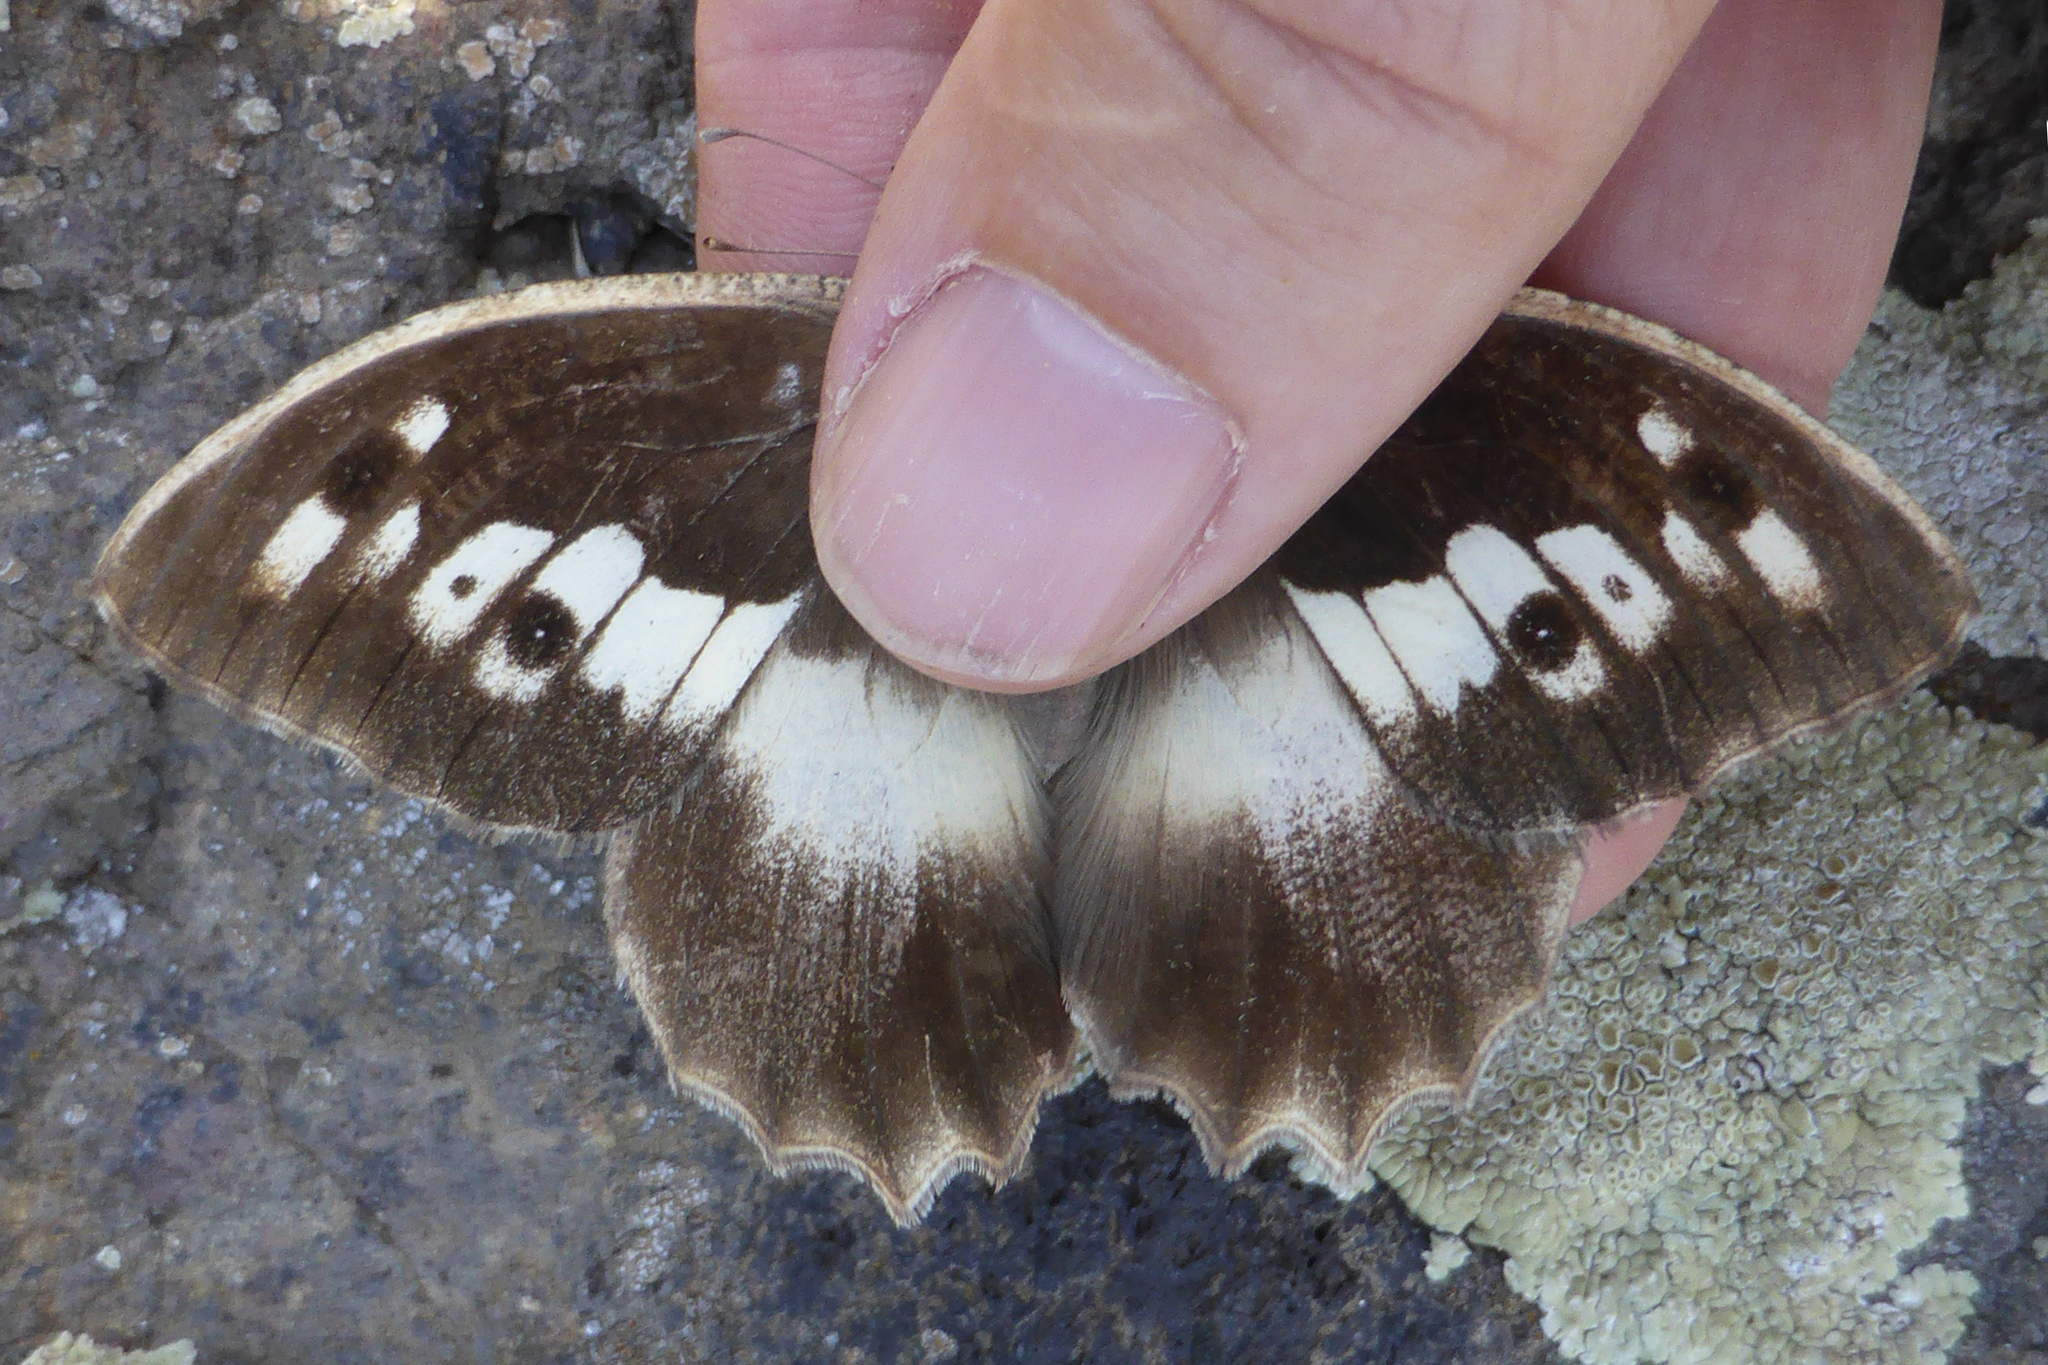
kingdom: Animalia
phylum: Arthropoda
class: Insecta
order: Lepidoptera
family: Nymphalidae
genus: Satyrus
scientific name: Satyrus briseis
